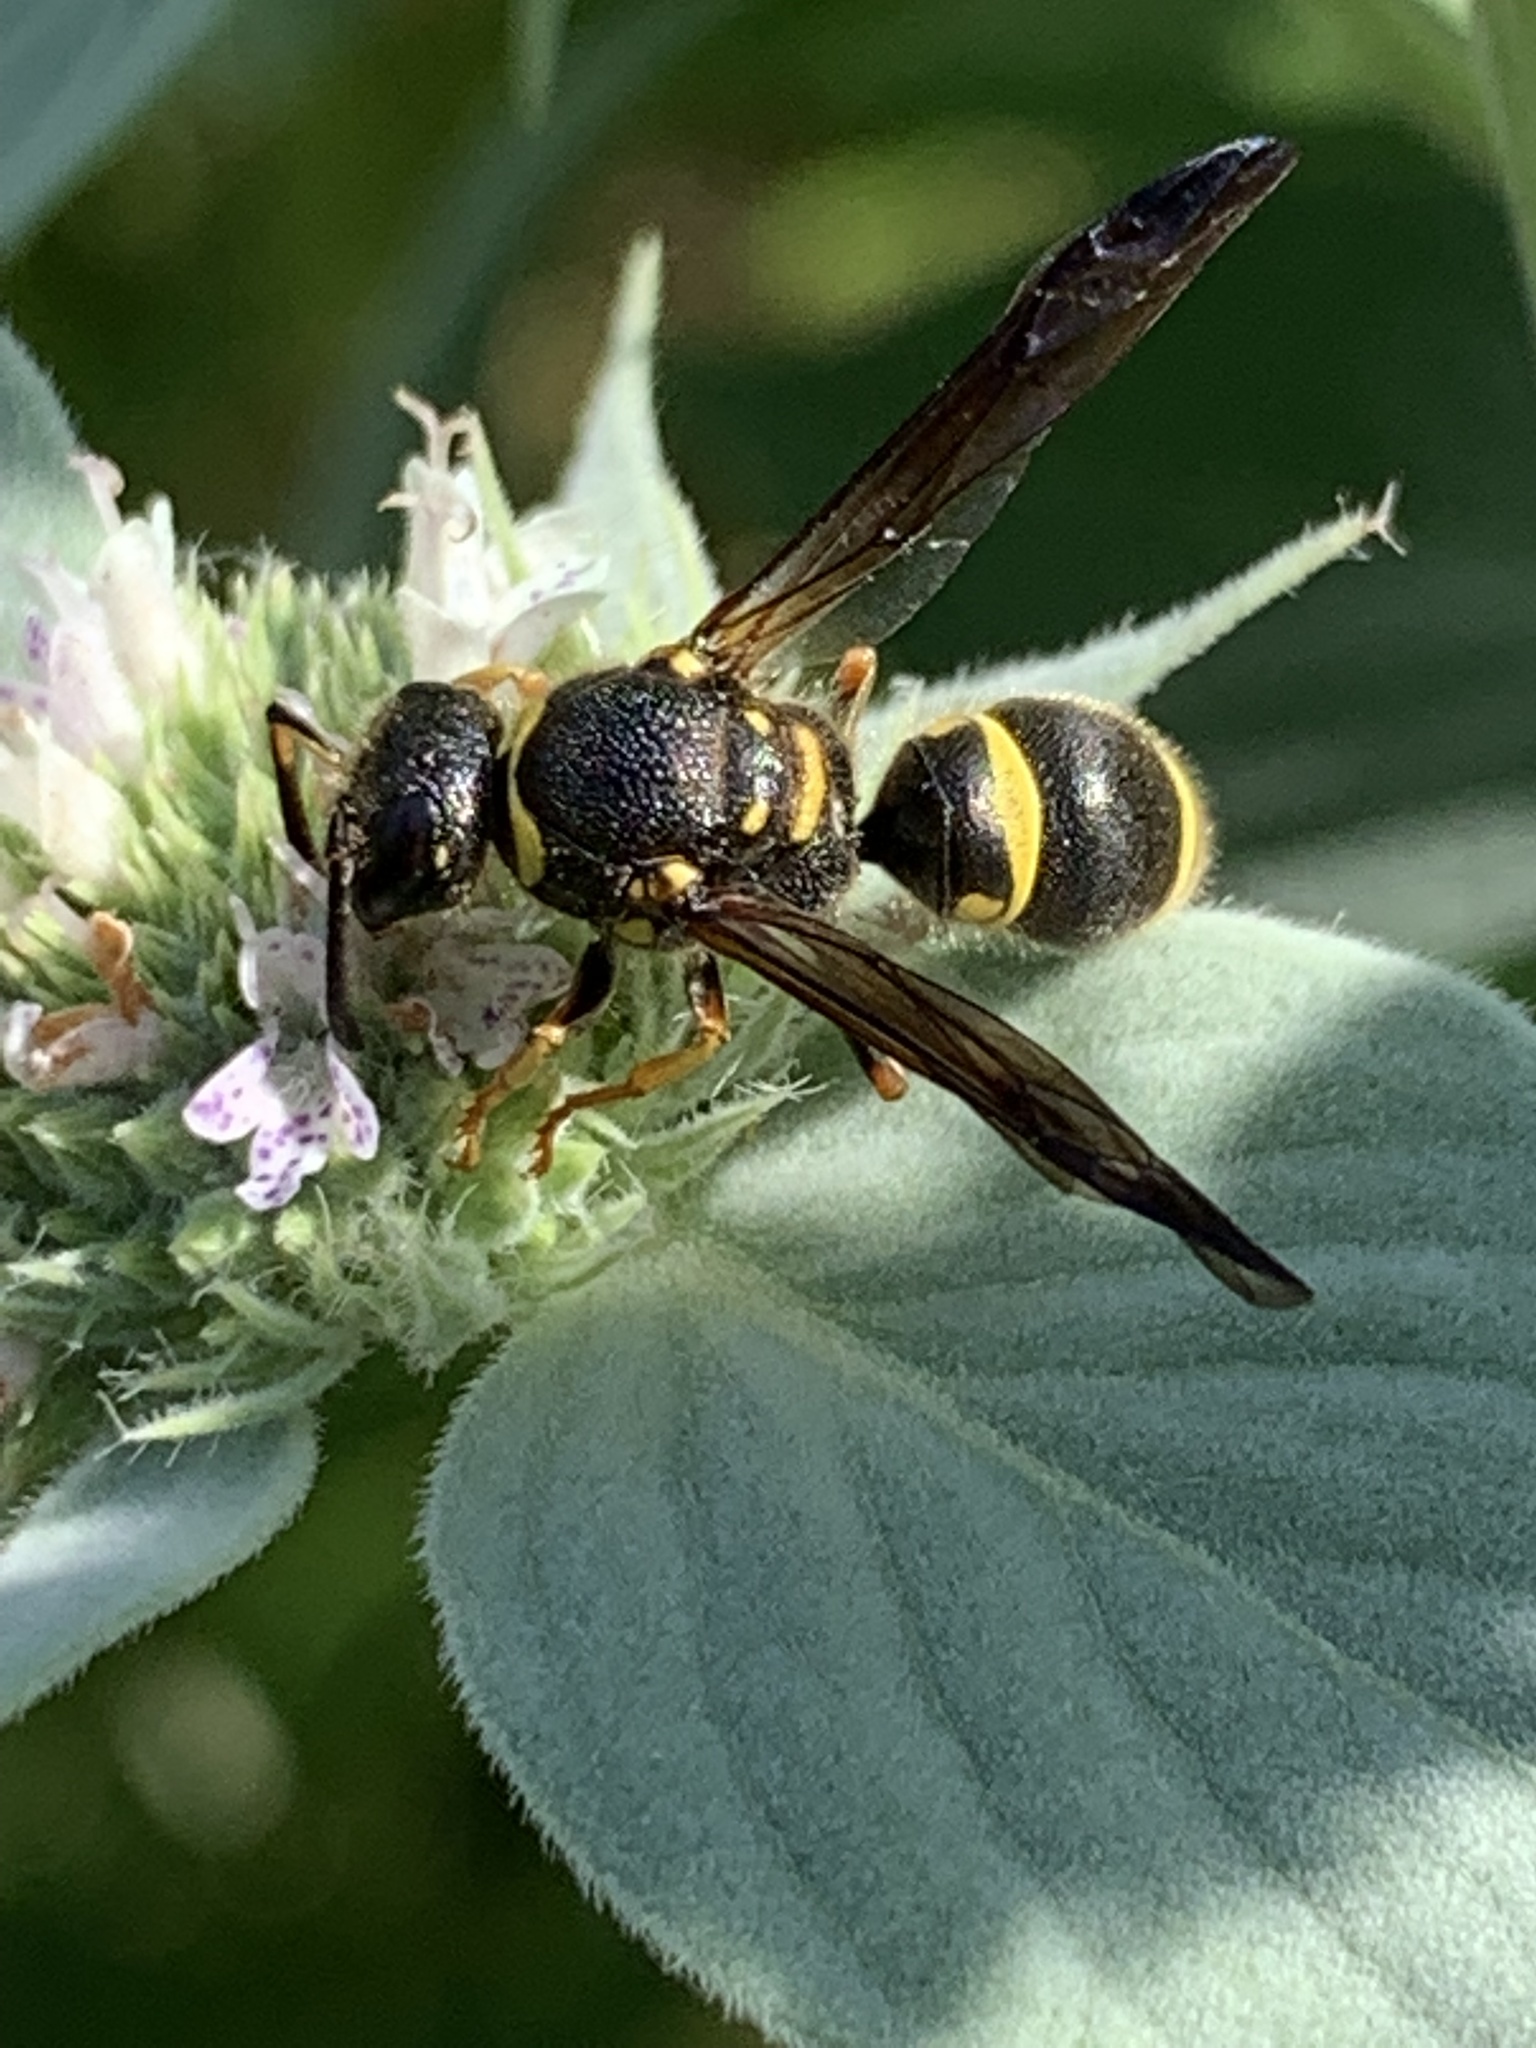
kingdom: Animalia
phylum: Arthropoda
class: Insecta
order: Hymenoptera
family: Vespidae
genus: Ancistrocerus
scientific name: Ancistrocerus campestris
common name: Smiling mason wasp
